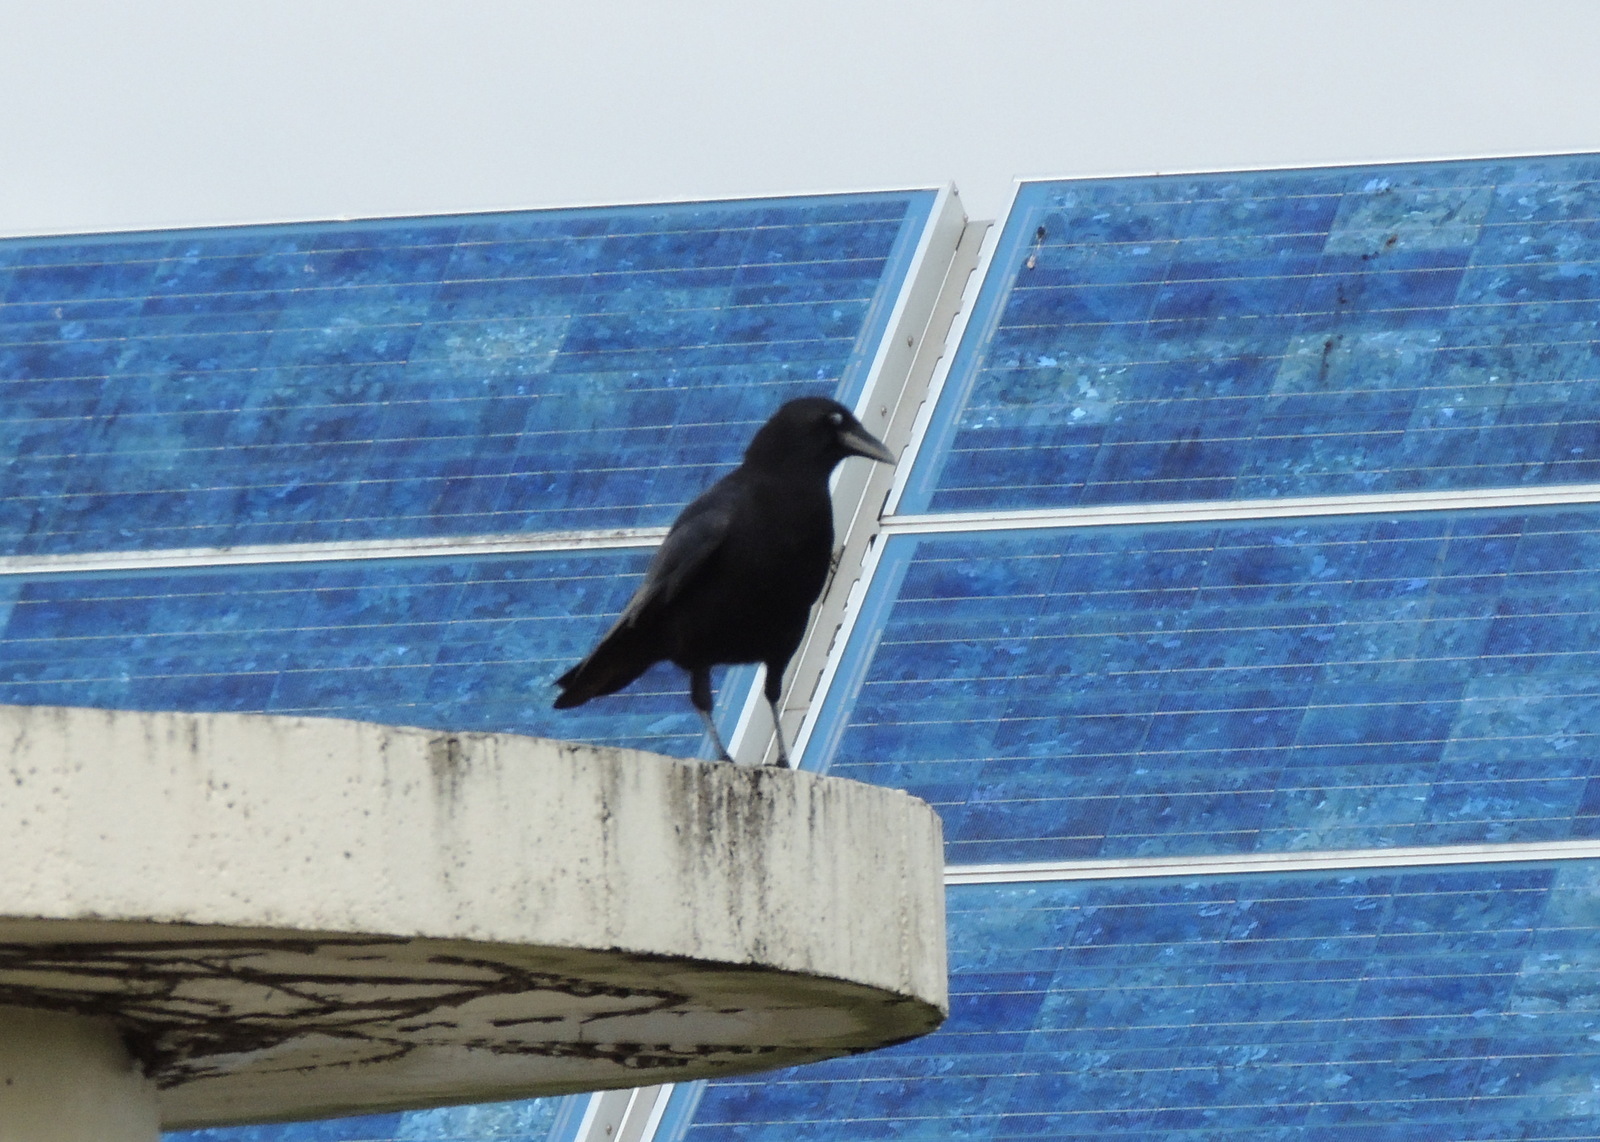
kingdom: Animalia
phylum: Chordata
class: Aves
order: Passeriformes
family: Corvidae
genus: Corvus
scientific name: Corvus brachyrhynchos
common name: American crow
